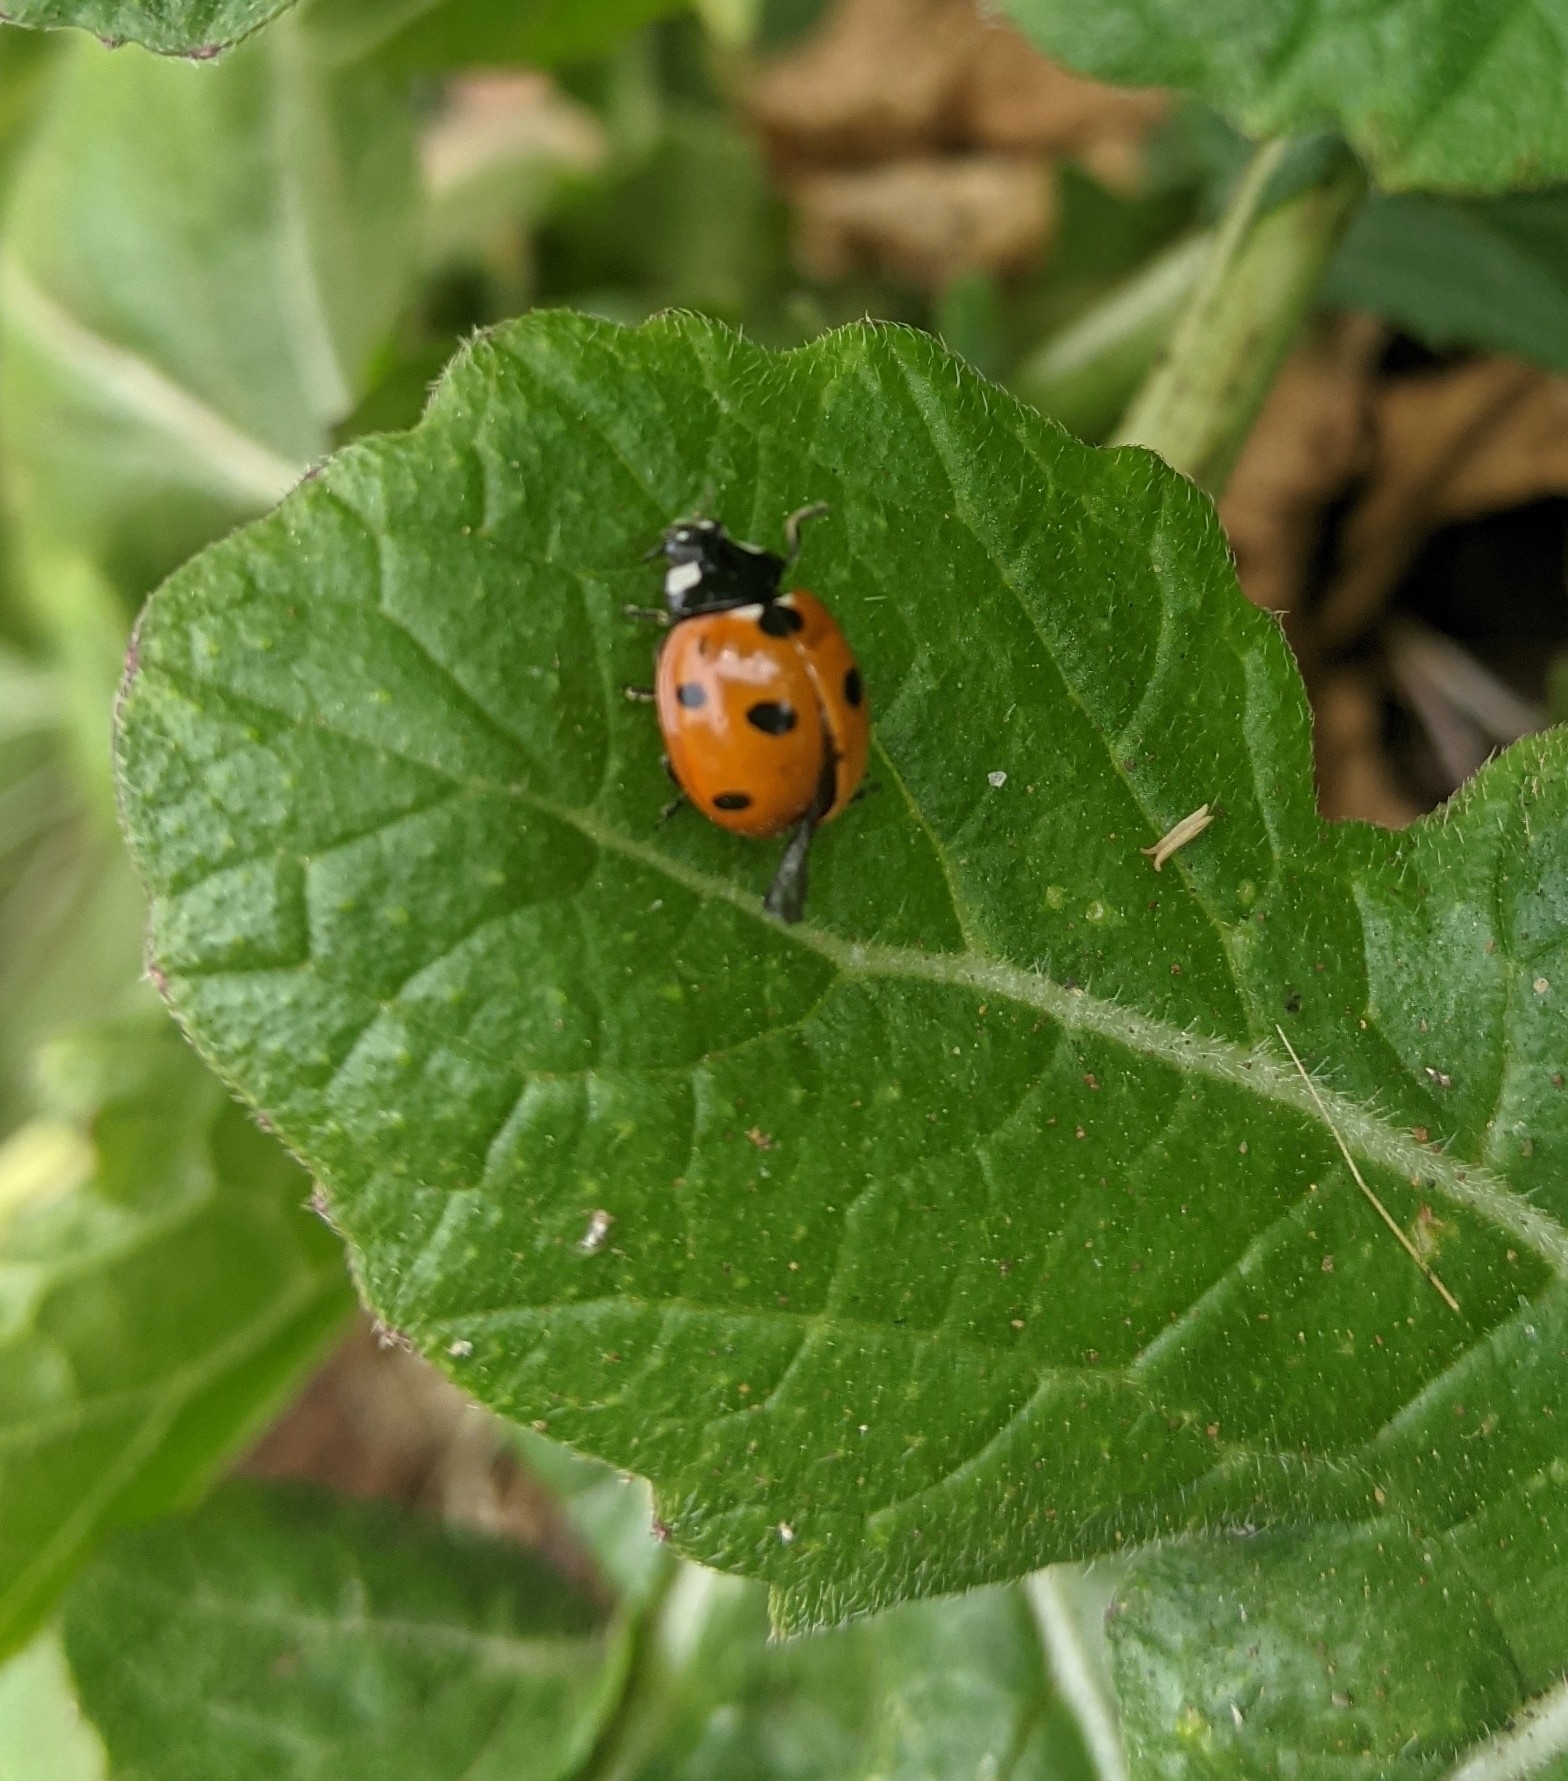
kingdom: Animalia
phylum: Arthropoda
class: Insecta
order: Coleoptera
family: Coccinellidae
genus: Coccinella
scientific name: Coccinella septempunctata
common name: Sevenspotted lady beetle
